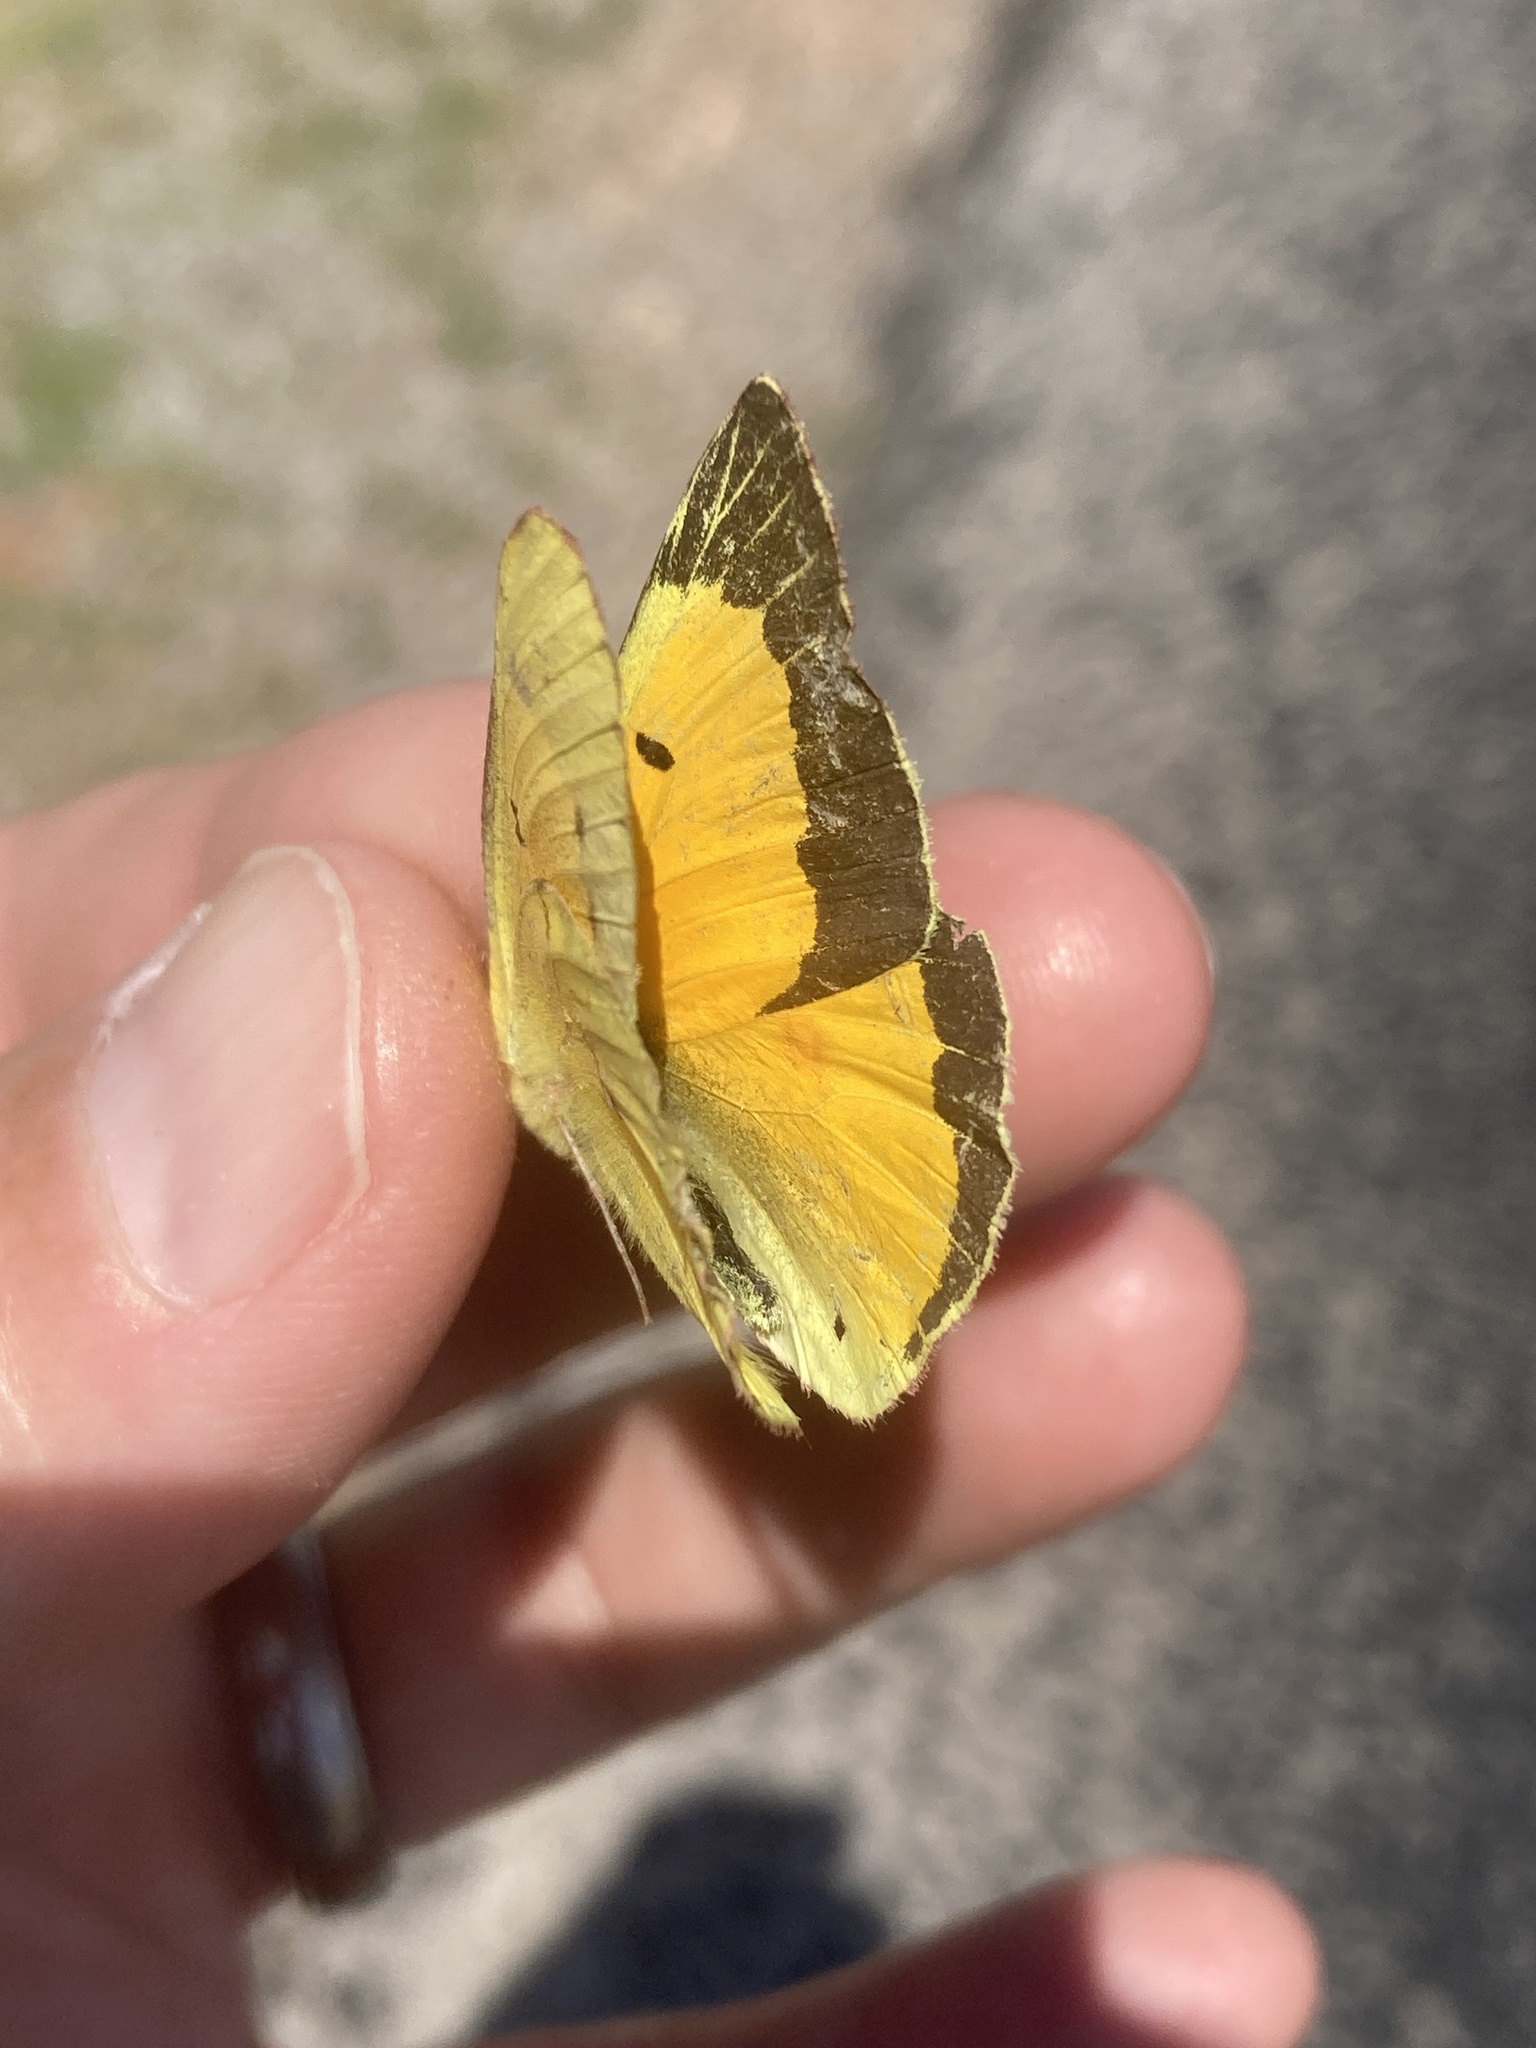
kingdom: Animalia
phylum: Arthropoda
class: Insecta
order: Lepidoptera
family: Pieridae
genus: Colias
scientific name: Colias eurytheme
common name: Alfalfa butterfly
